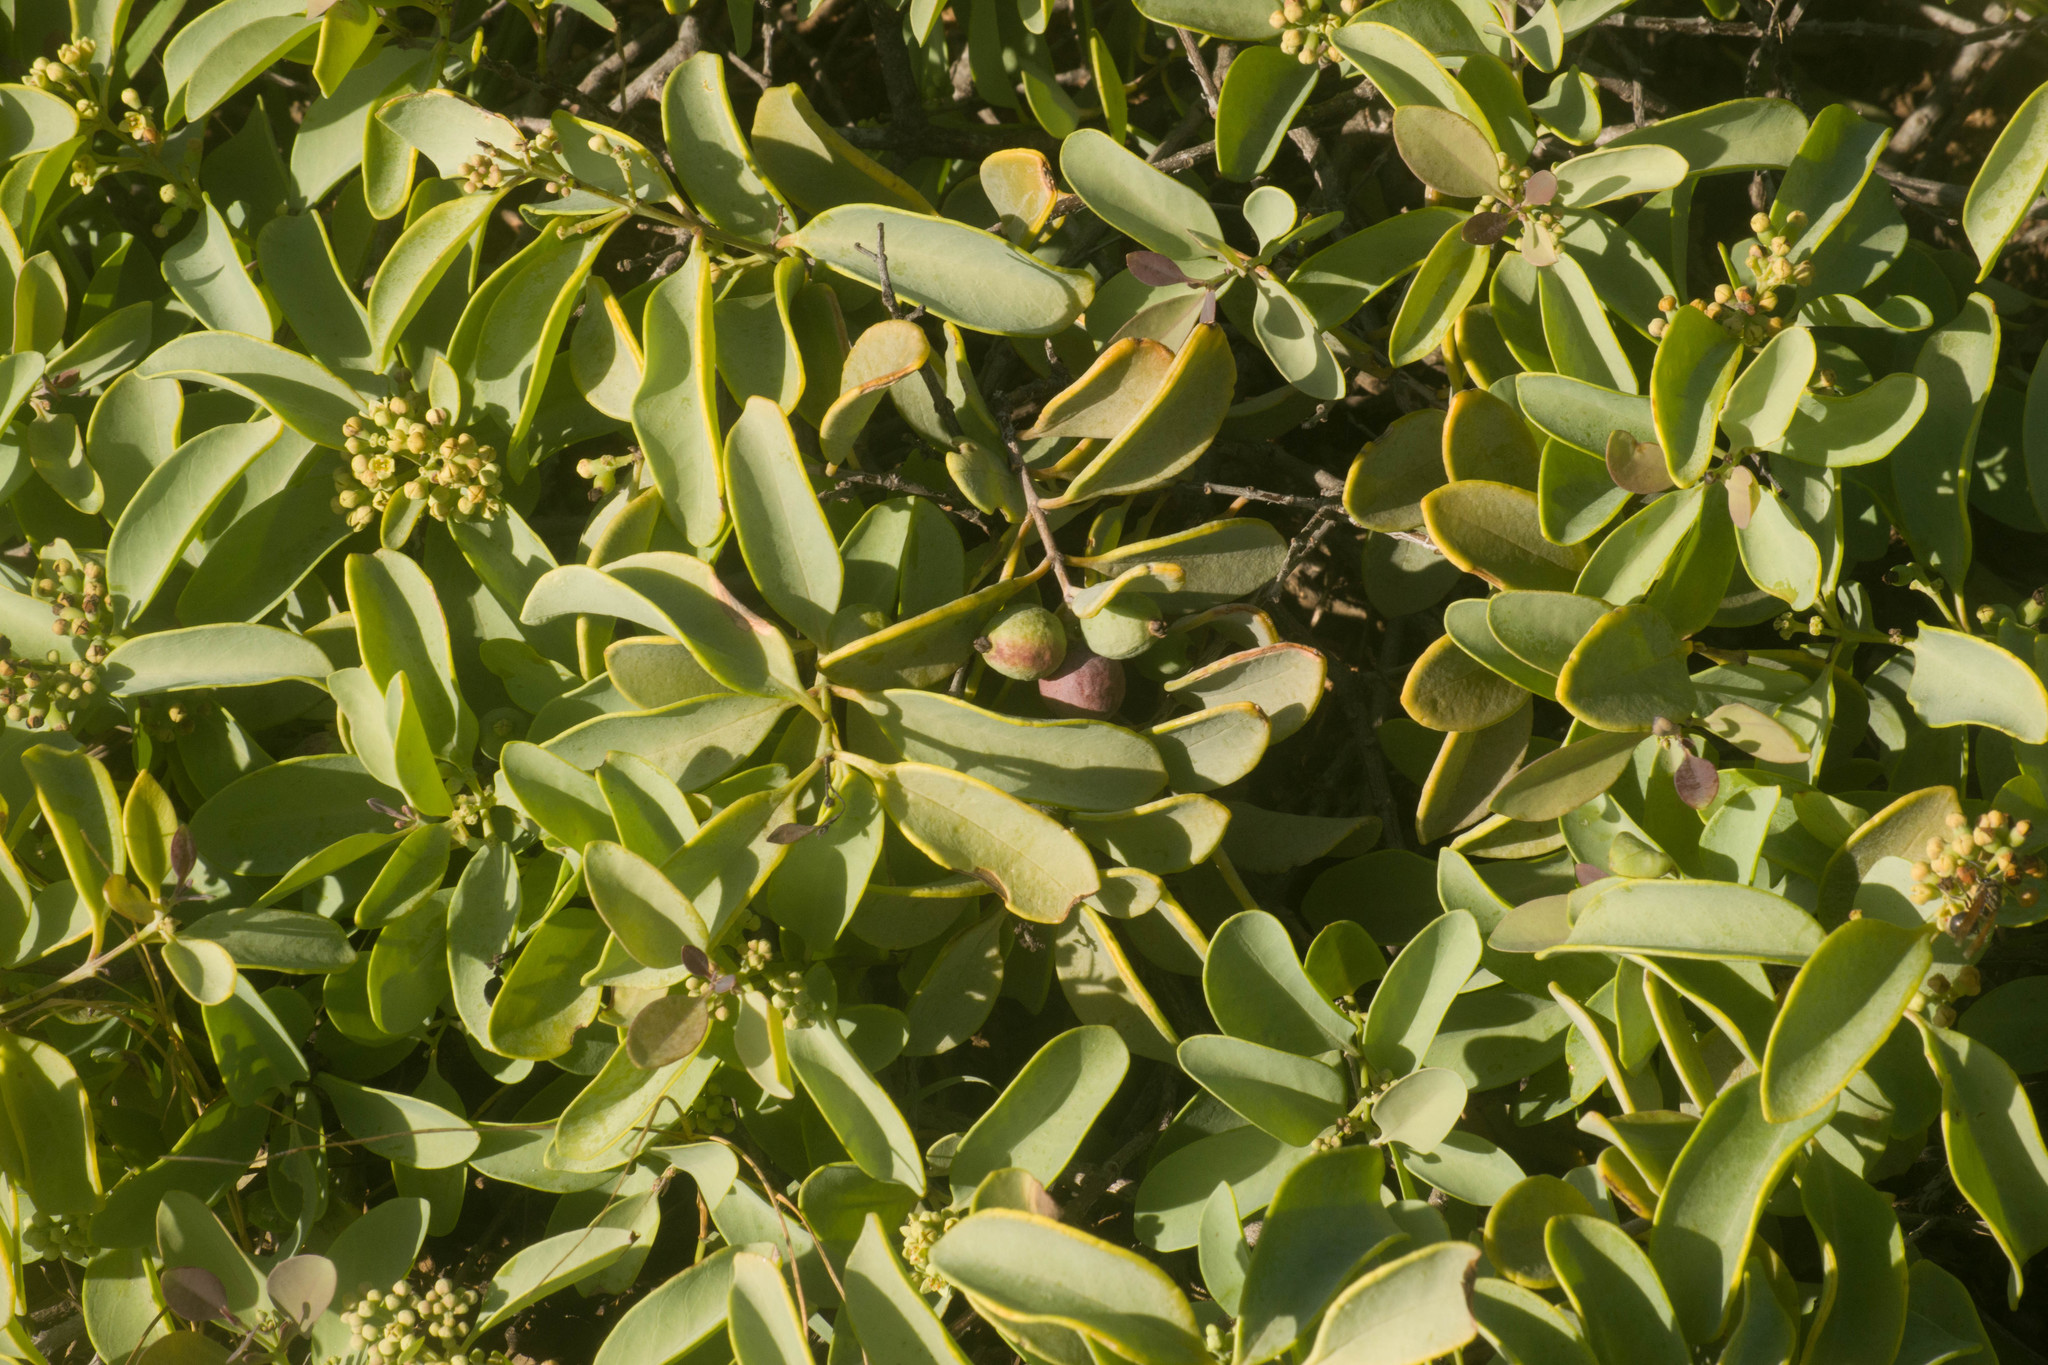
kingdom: Plantae
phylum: Tracheophyta
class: Magnoliopsida
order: Santalales
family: Santalaceae
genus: Santalum
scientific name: Santalum ellipticum
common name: Coast sandalwood
